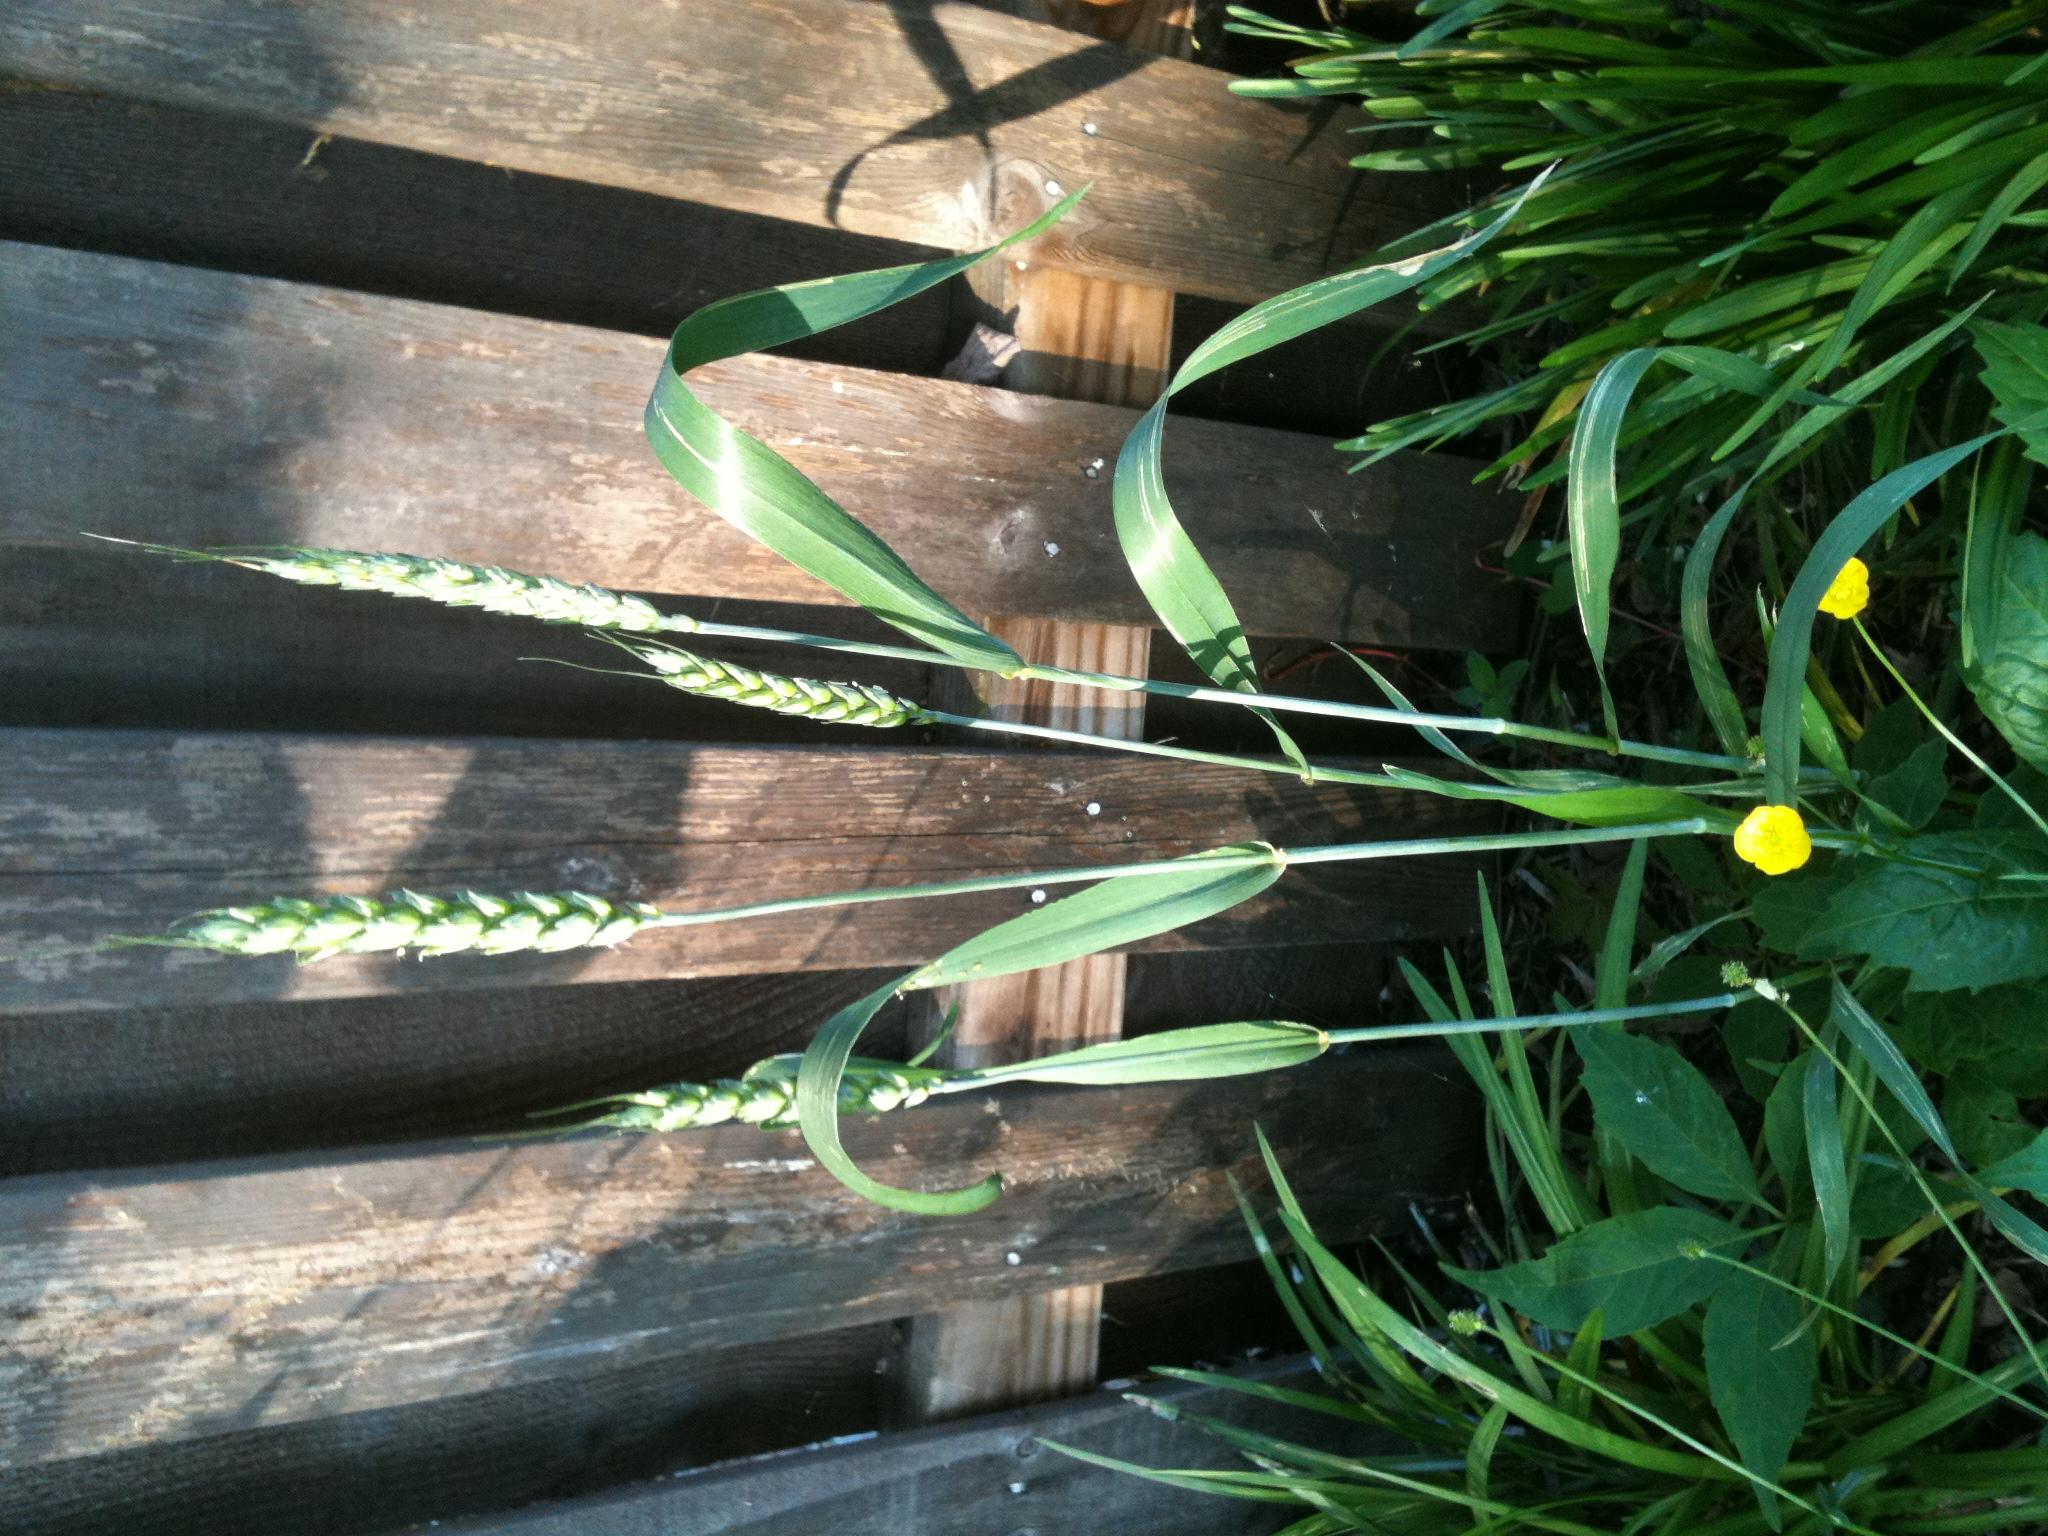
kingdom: Plantae
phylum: Tracheophyta
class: Liliopsida
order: Poales
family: Poaceae
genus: Triticum
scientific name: Triticum aestivum
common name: Common wheat
